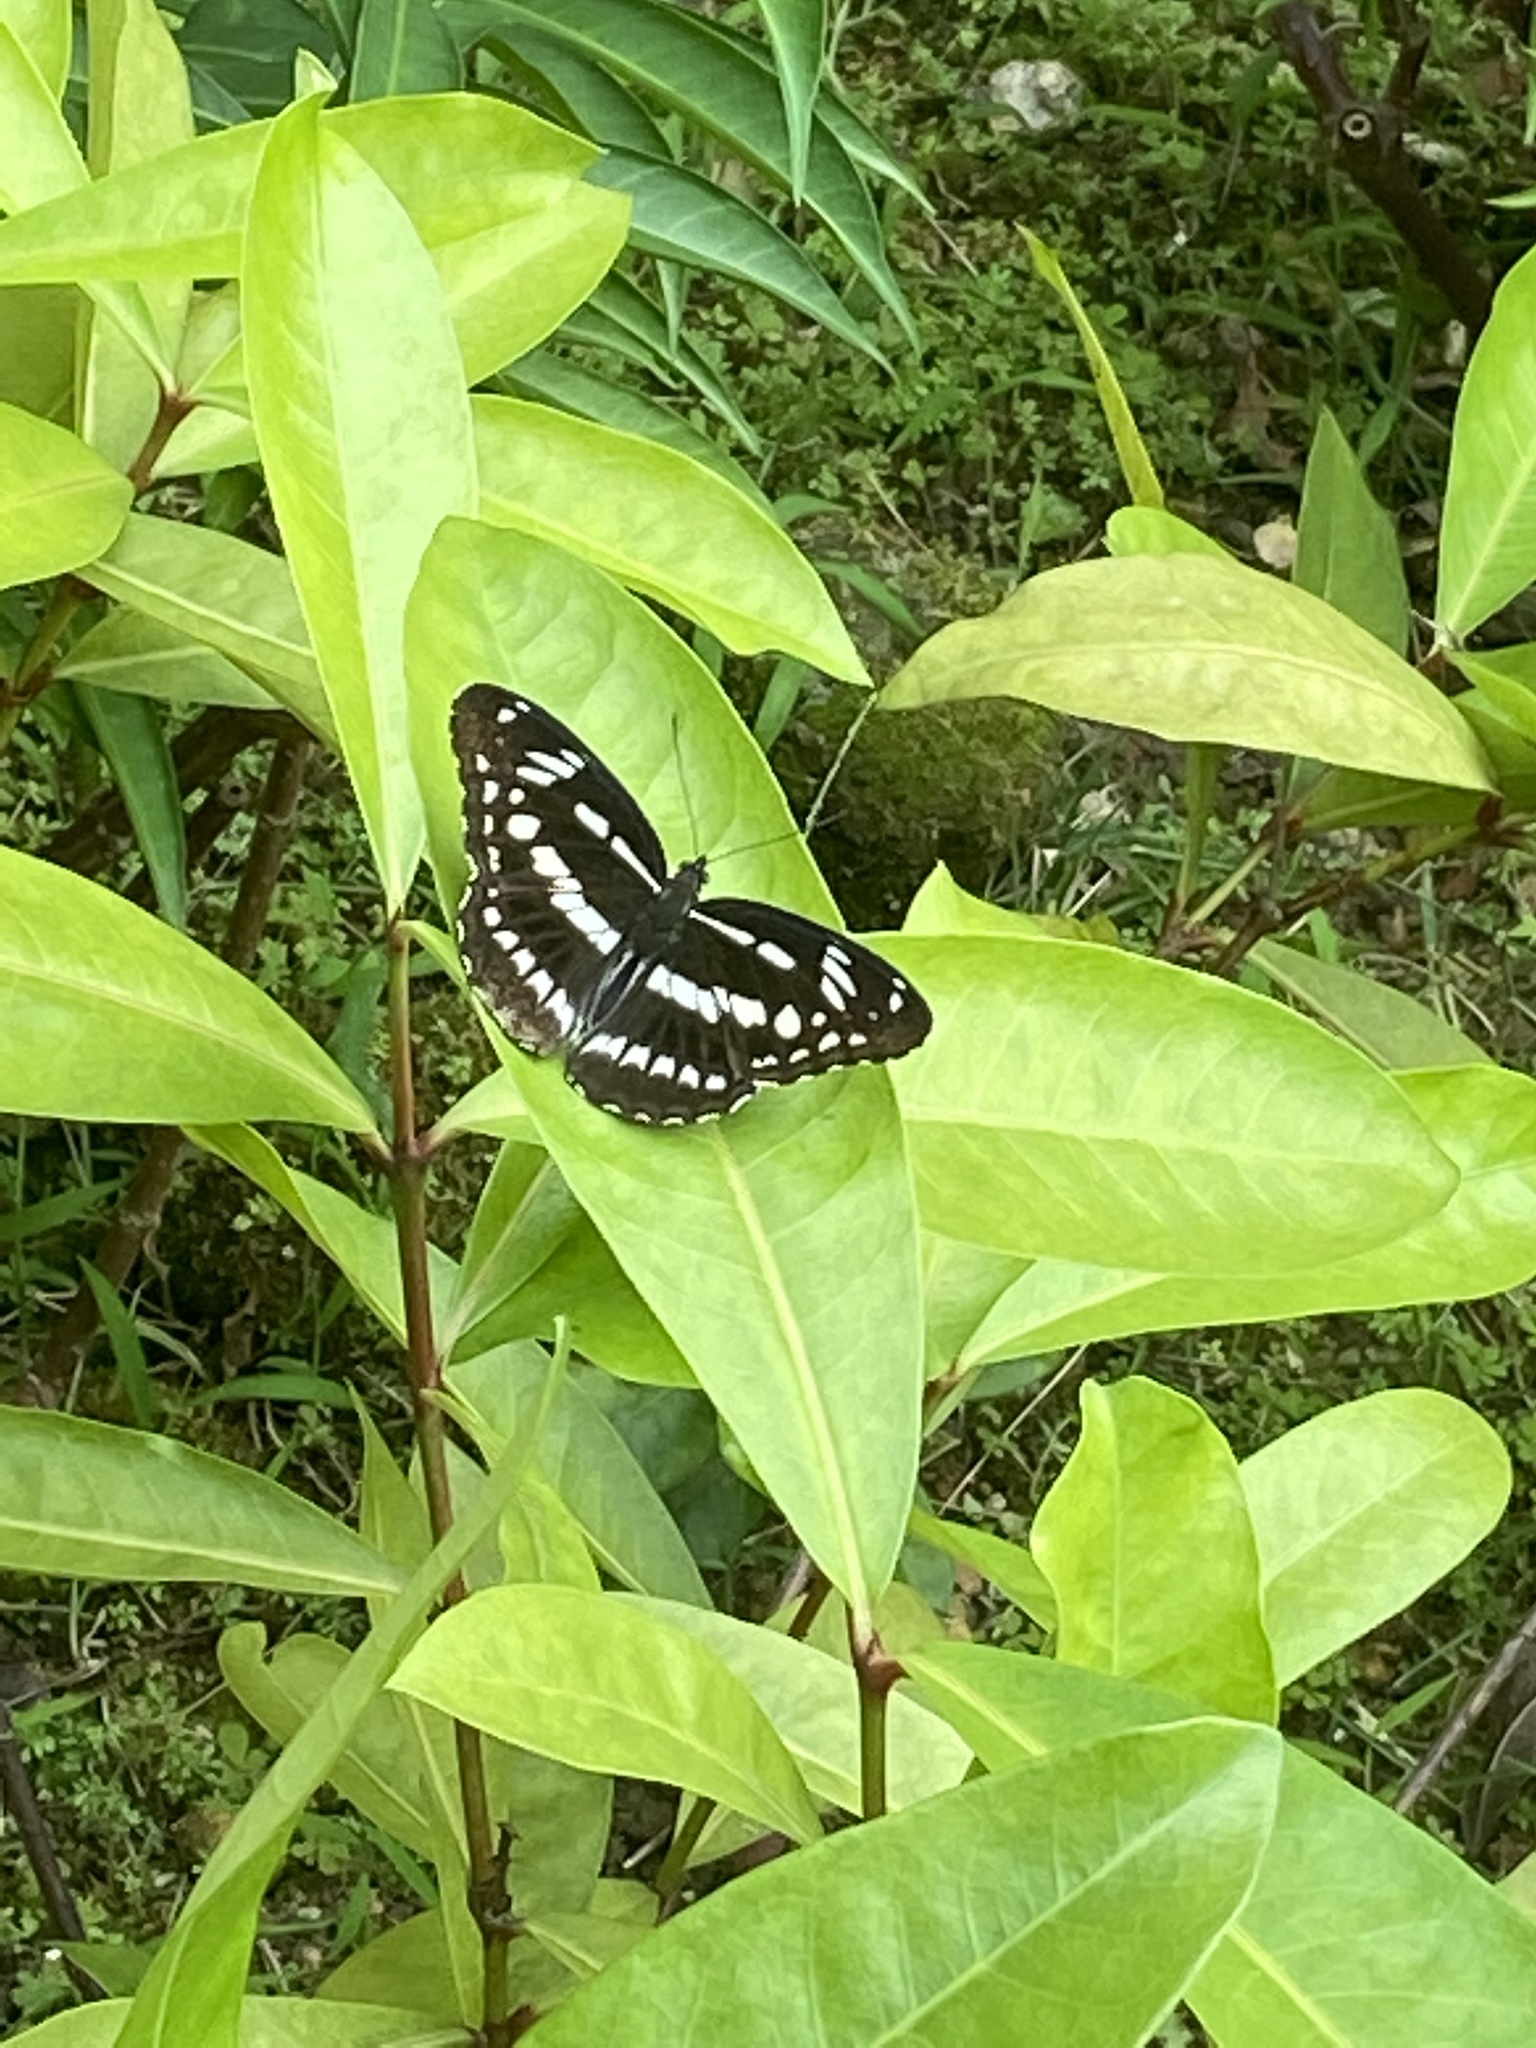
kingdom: Animalia
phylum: Arthropoda
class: Insecta
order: Lepidoptera
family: Nymphalidae
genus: Limenitis
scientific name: Limenitis sulpitia
